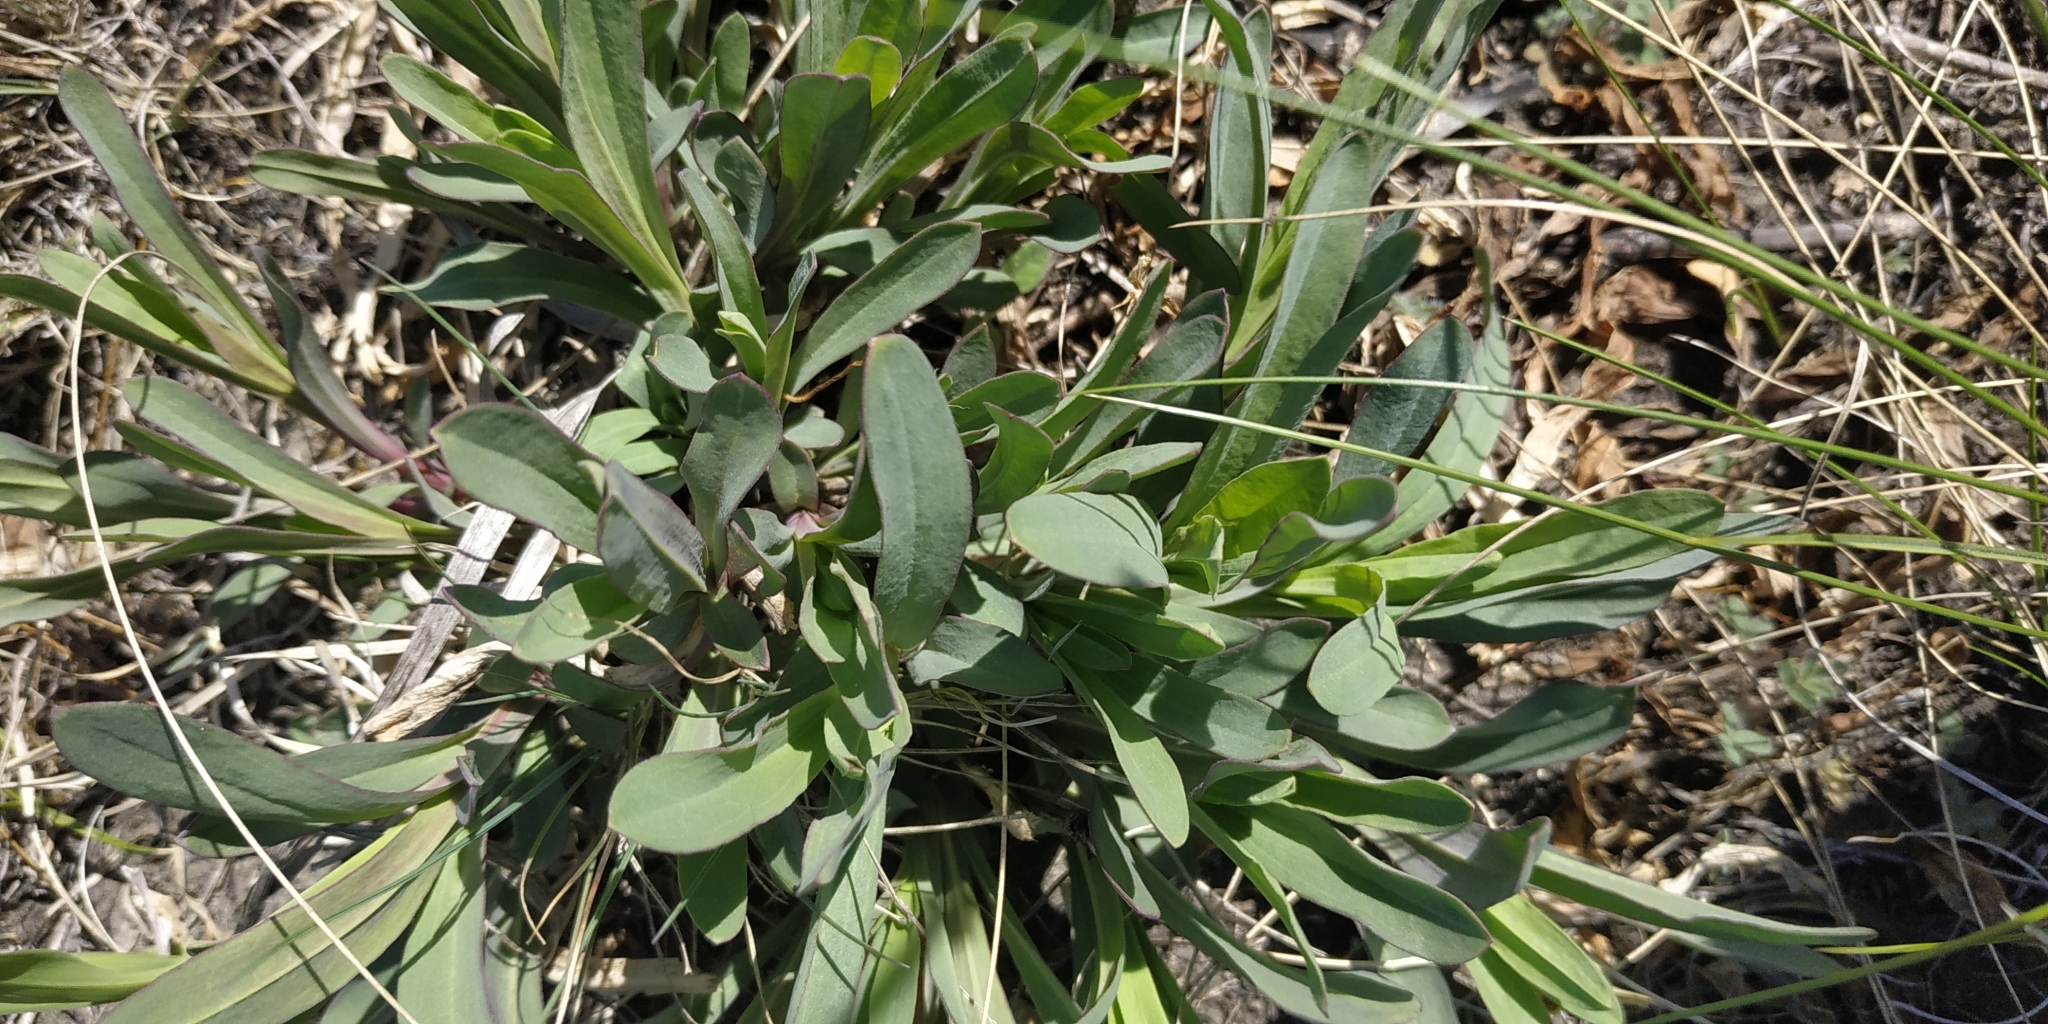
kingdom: Plantae
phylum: Tracheophyta
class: Magnoliopsida
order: Caryophyllales
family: Caryophyllaceae
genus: Gypsophila
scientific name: Gypsophila altissima
